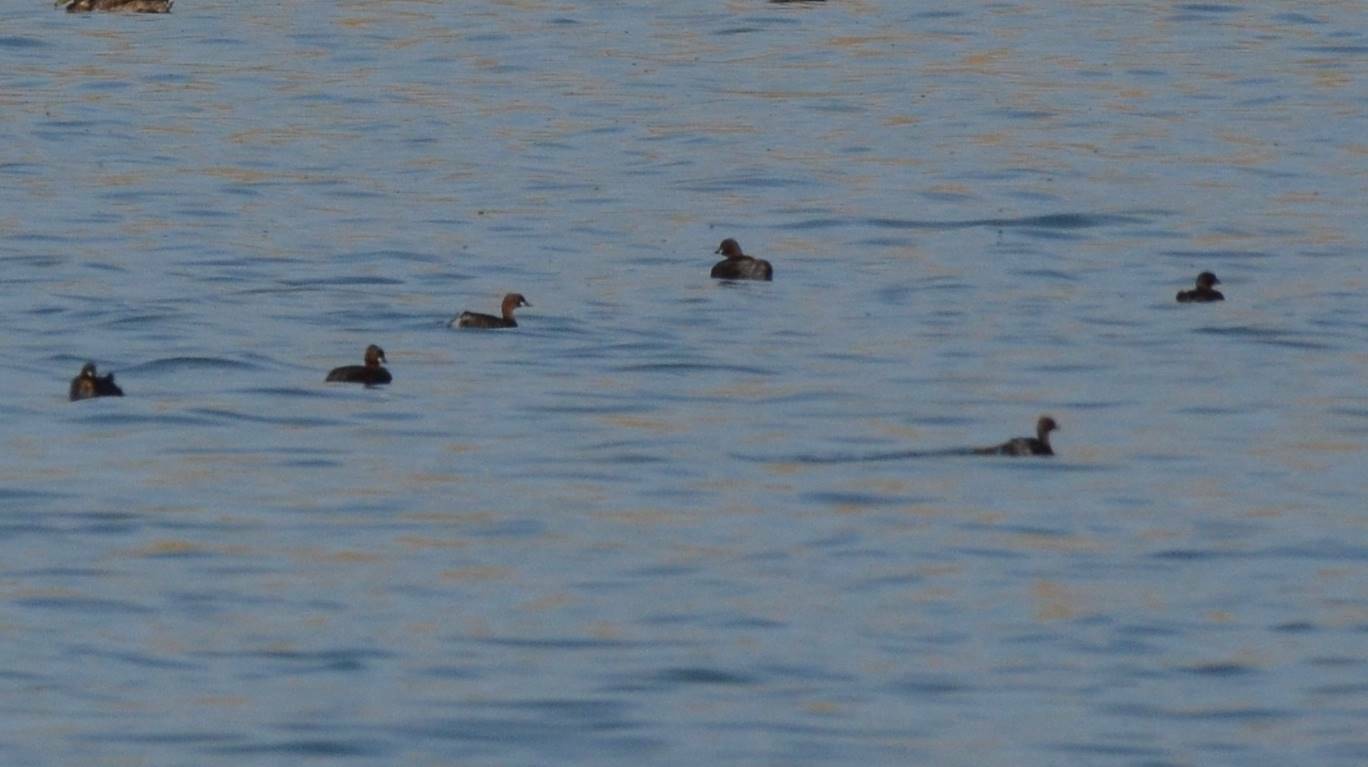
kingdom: Animalia
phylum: Chordata
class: Aves
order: Podicipediformes
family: Podicipedidae
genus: Tachybaptus
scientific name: Tachybaptus ruficollis
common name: Little grebe
